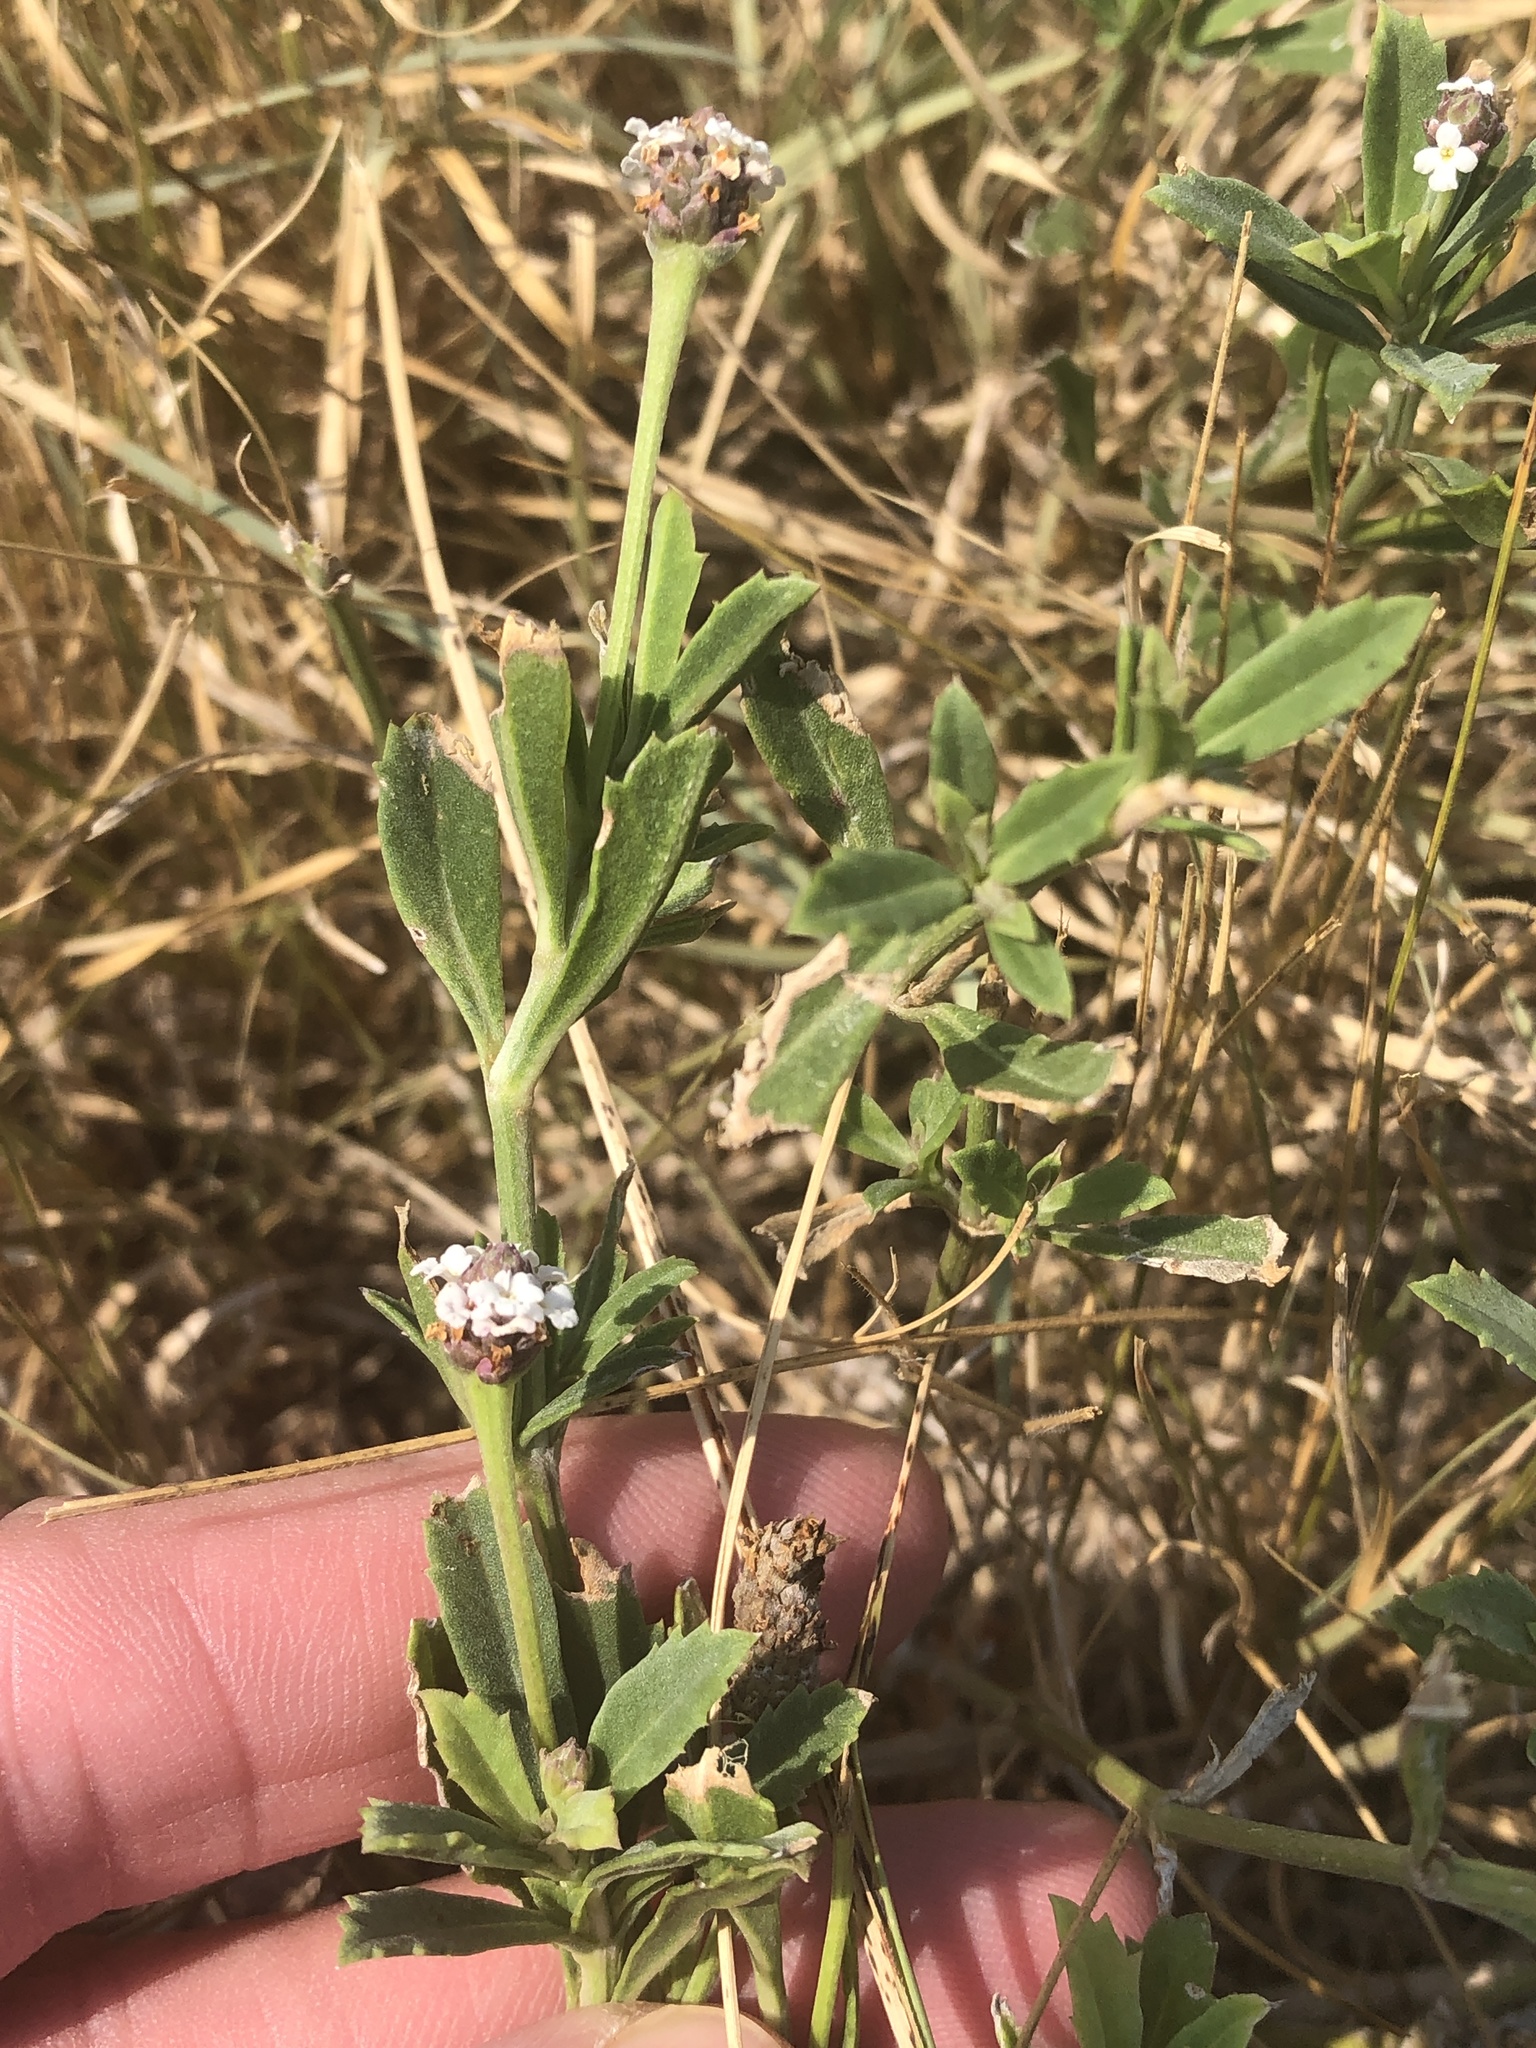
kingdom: Plantae
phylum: Tracheophyta
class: Magnoliopsida
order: Lamiales
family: Verbenaceae
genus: Phyla
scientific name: Phyla nodiflora
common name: Frogfruit
